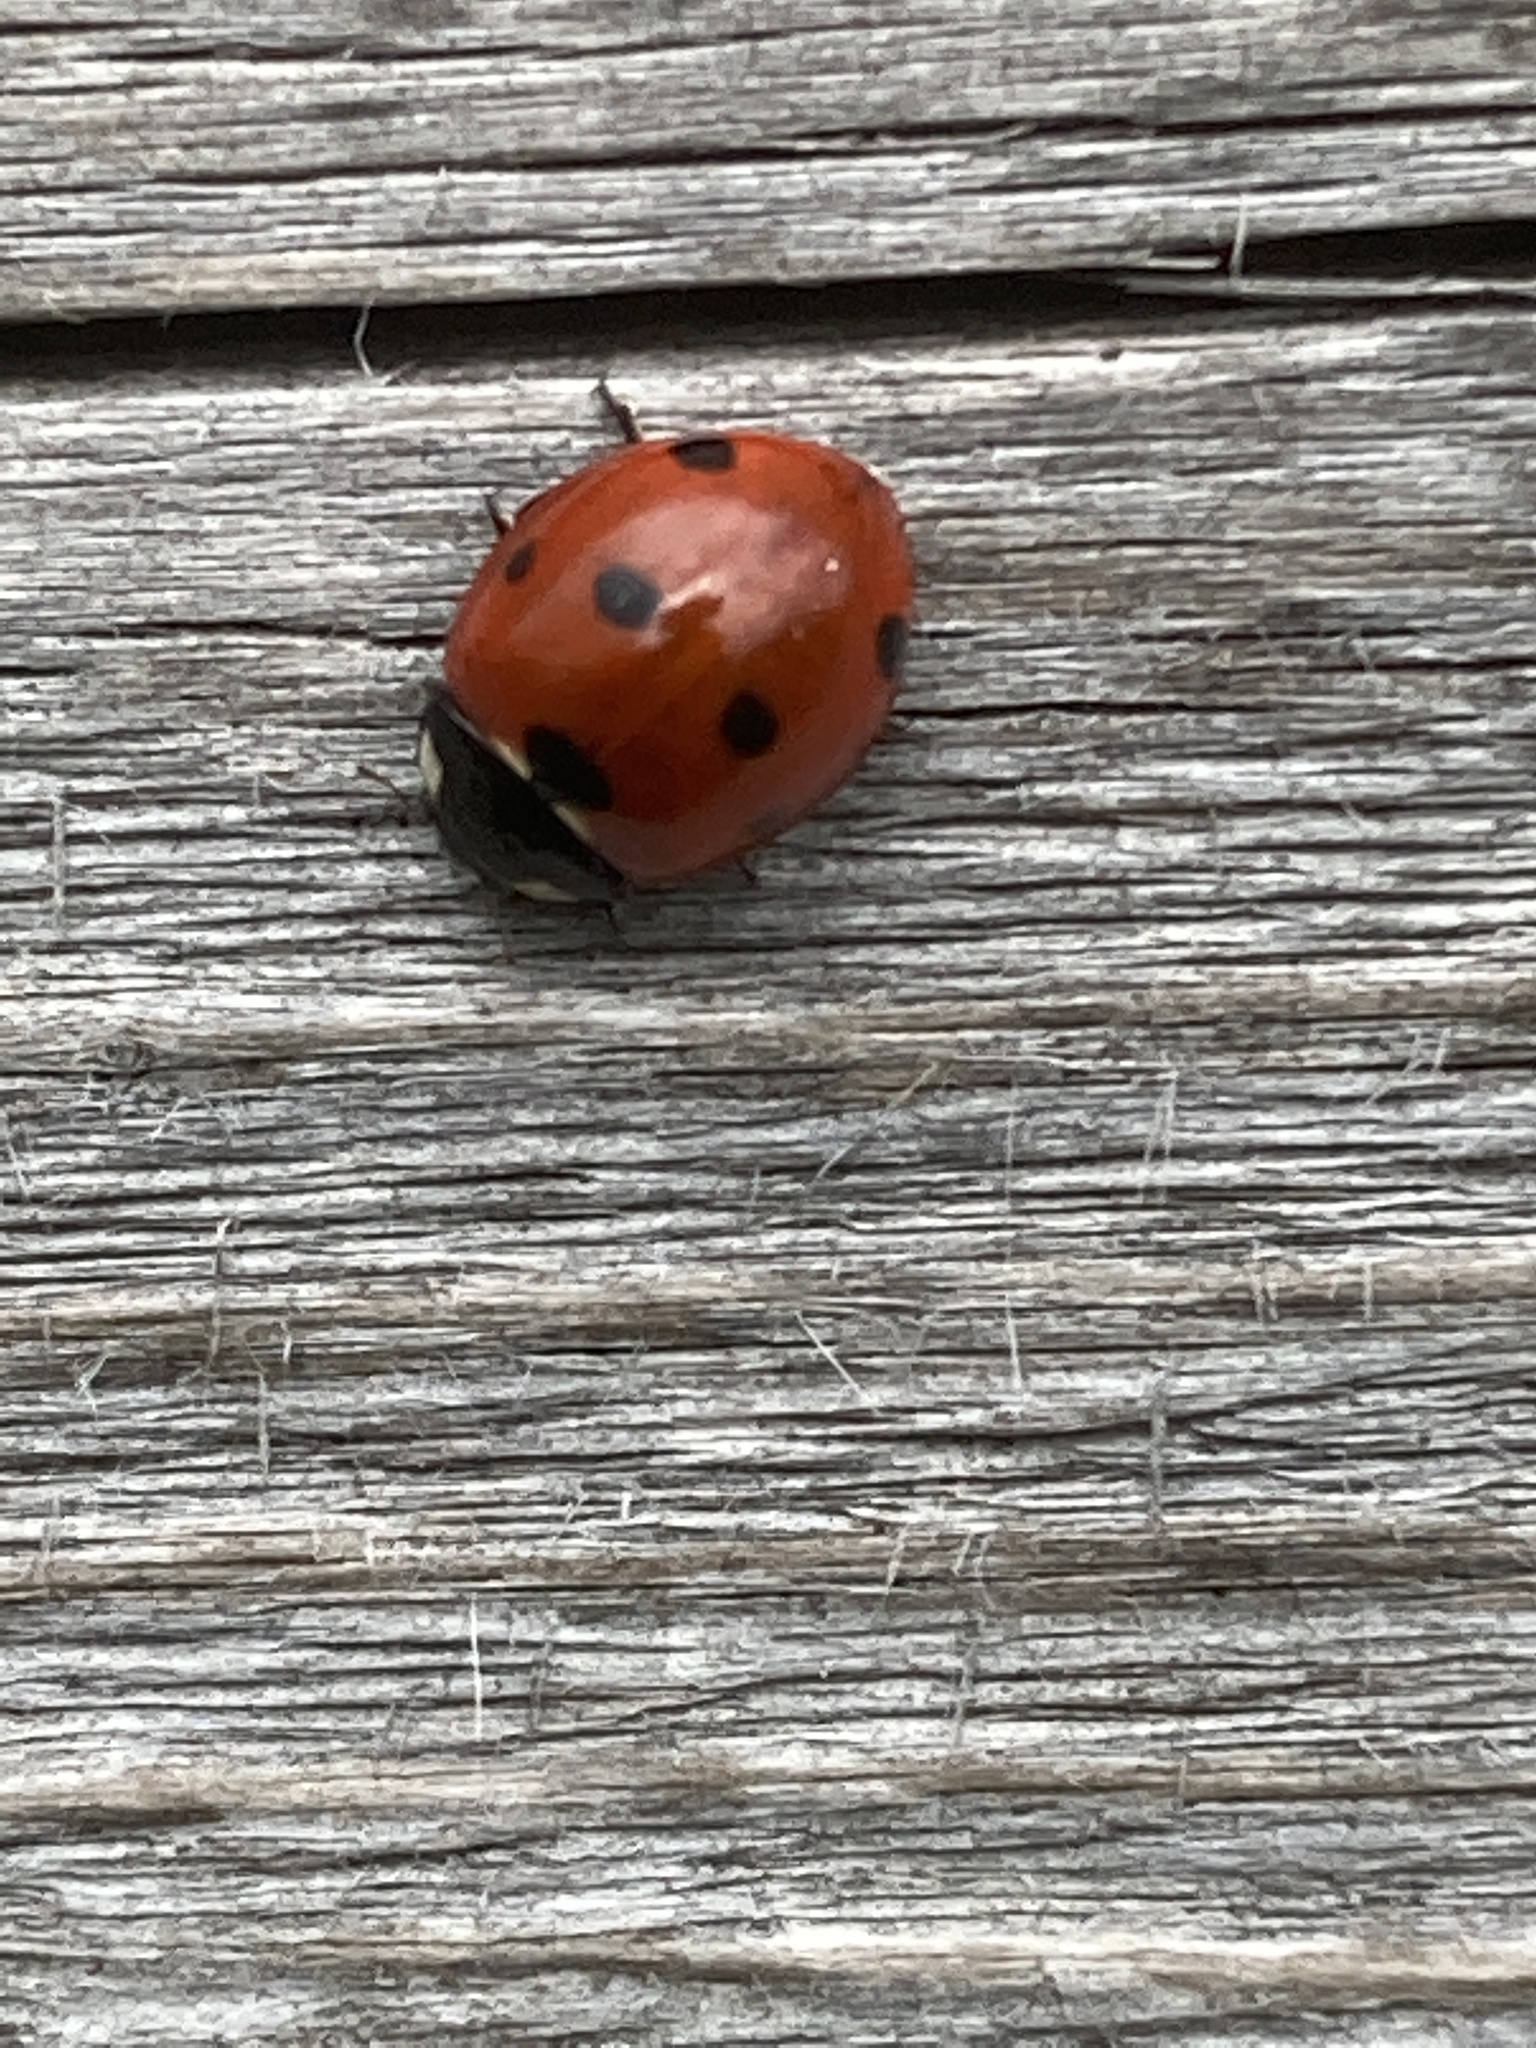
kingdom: Animalia
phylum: Arthropoda
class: Insecta
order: Coleoptera
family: Coccinellidae
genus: Coccinella
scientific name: Coccinella septempunctata
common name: Sevenspotted lady beetle
